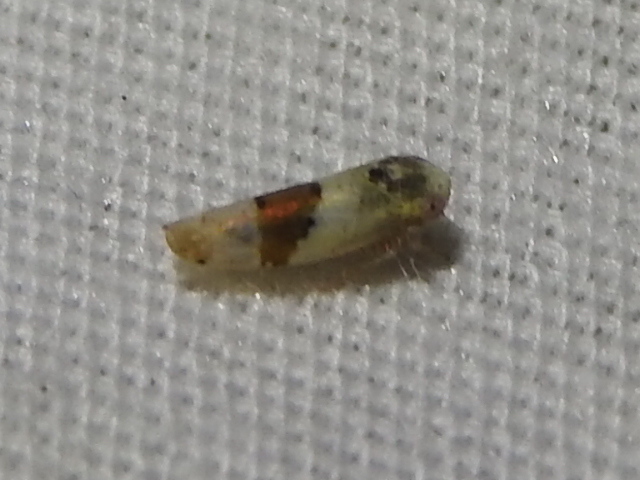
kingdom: Animalia
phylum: Arthropoda
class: Insecta
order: Hemiptera
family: Cicadellidae
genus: Norvellina
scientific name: Norvellina seminuda
